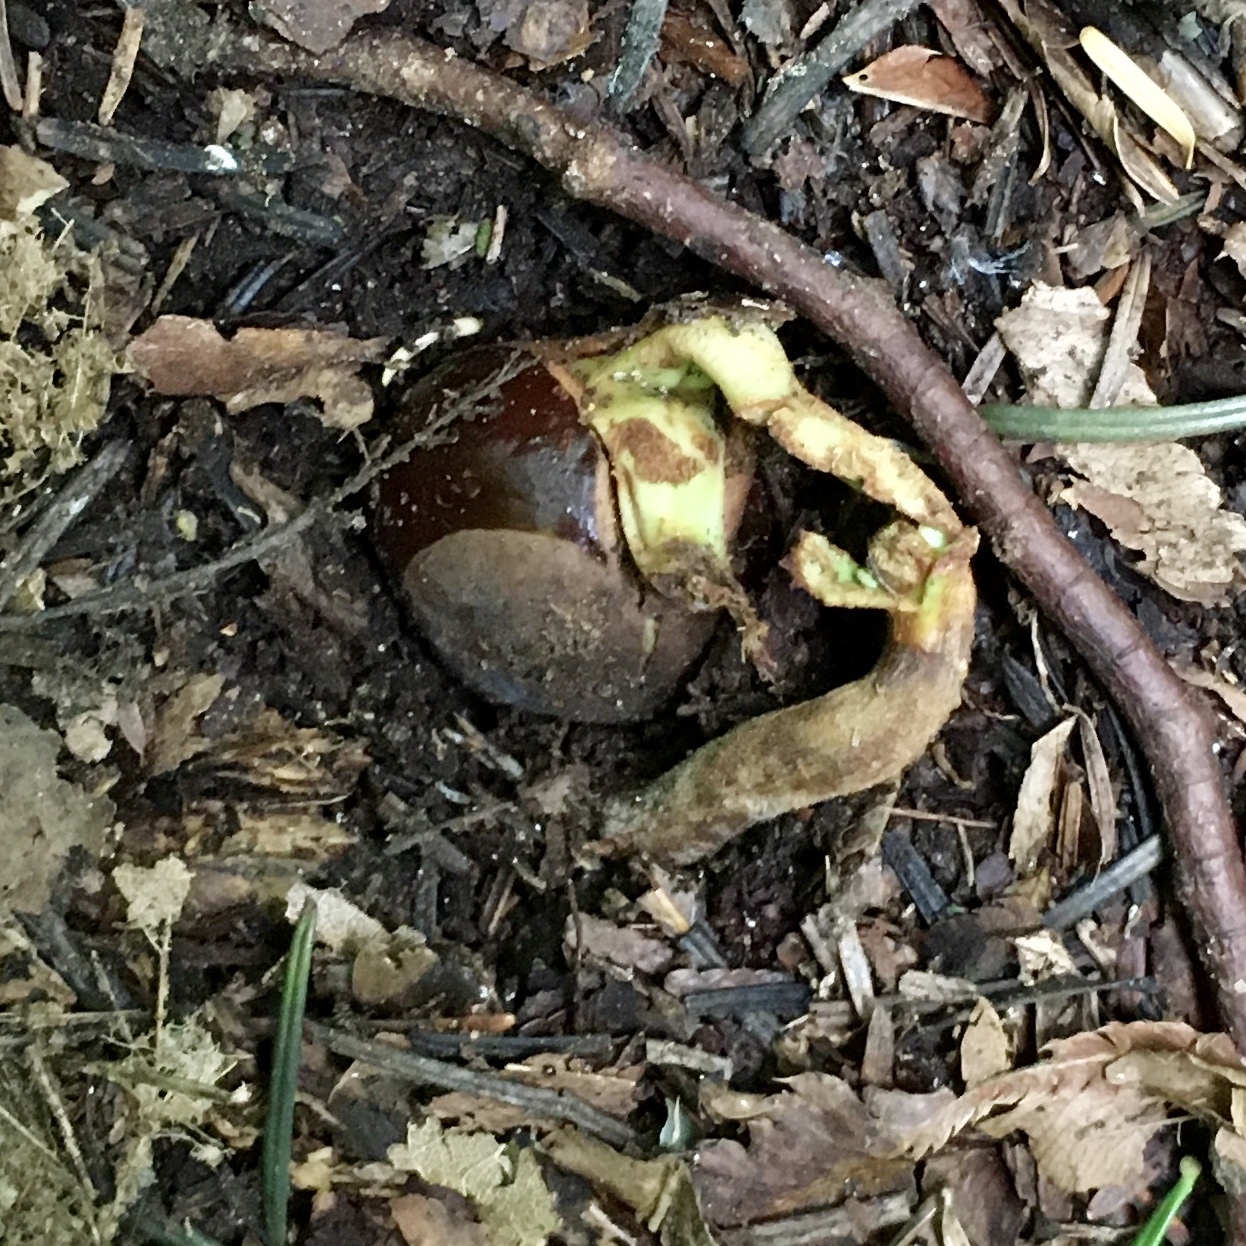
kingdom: Plantae
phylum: Tracheophyta
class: Magnoliopsida
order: Sapindales
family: Sapindaceae
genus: Aesculus
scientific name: Aesculus hippocastanum
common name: Horse-chestnut
